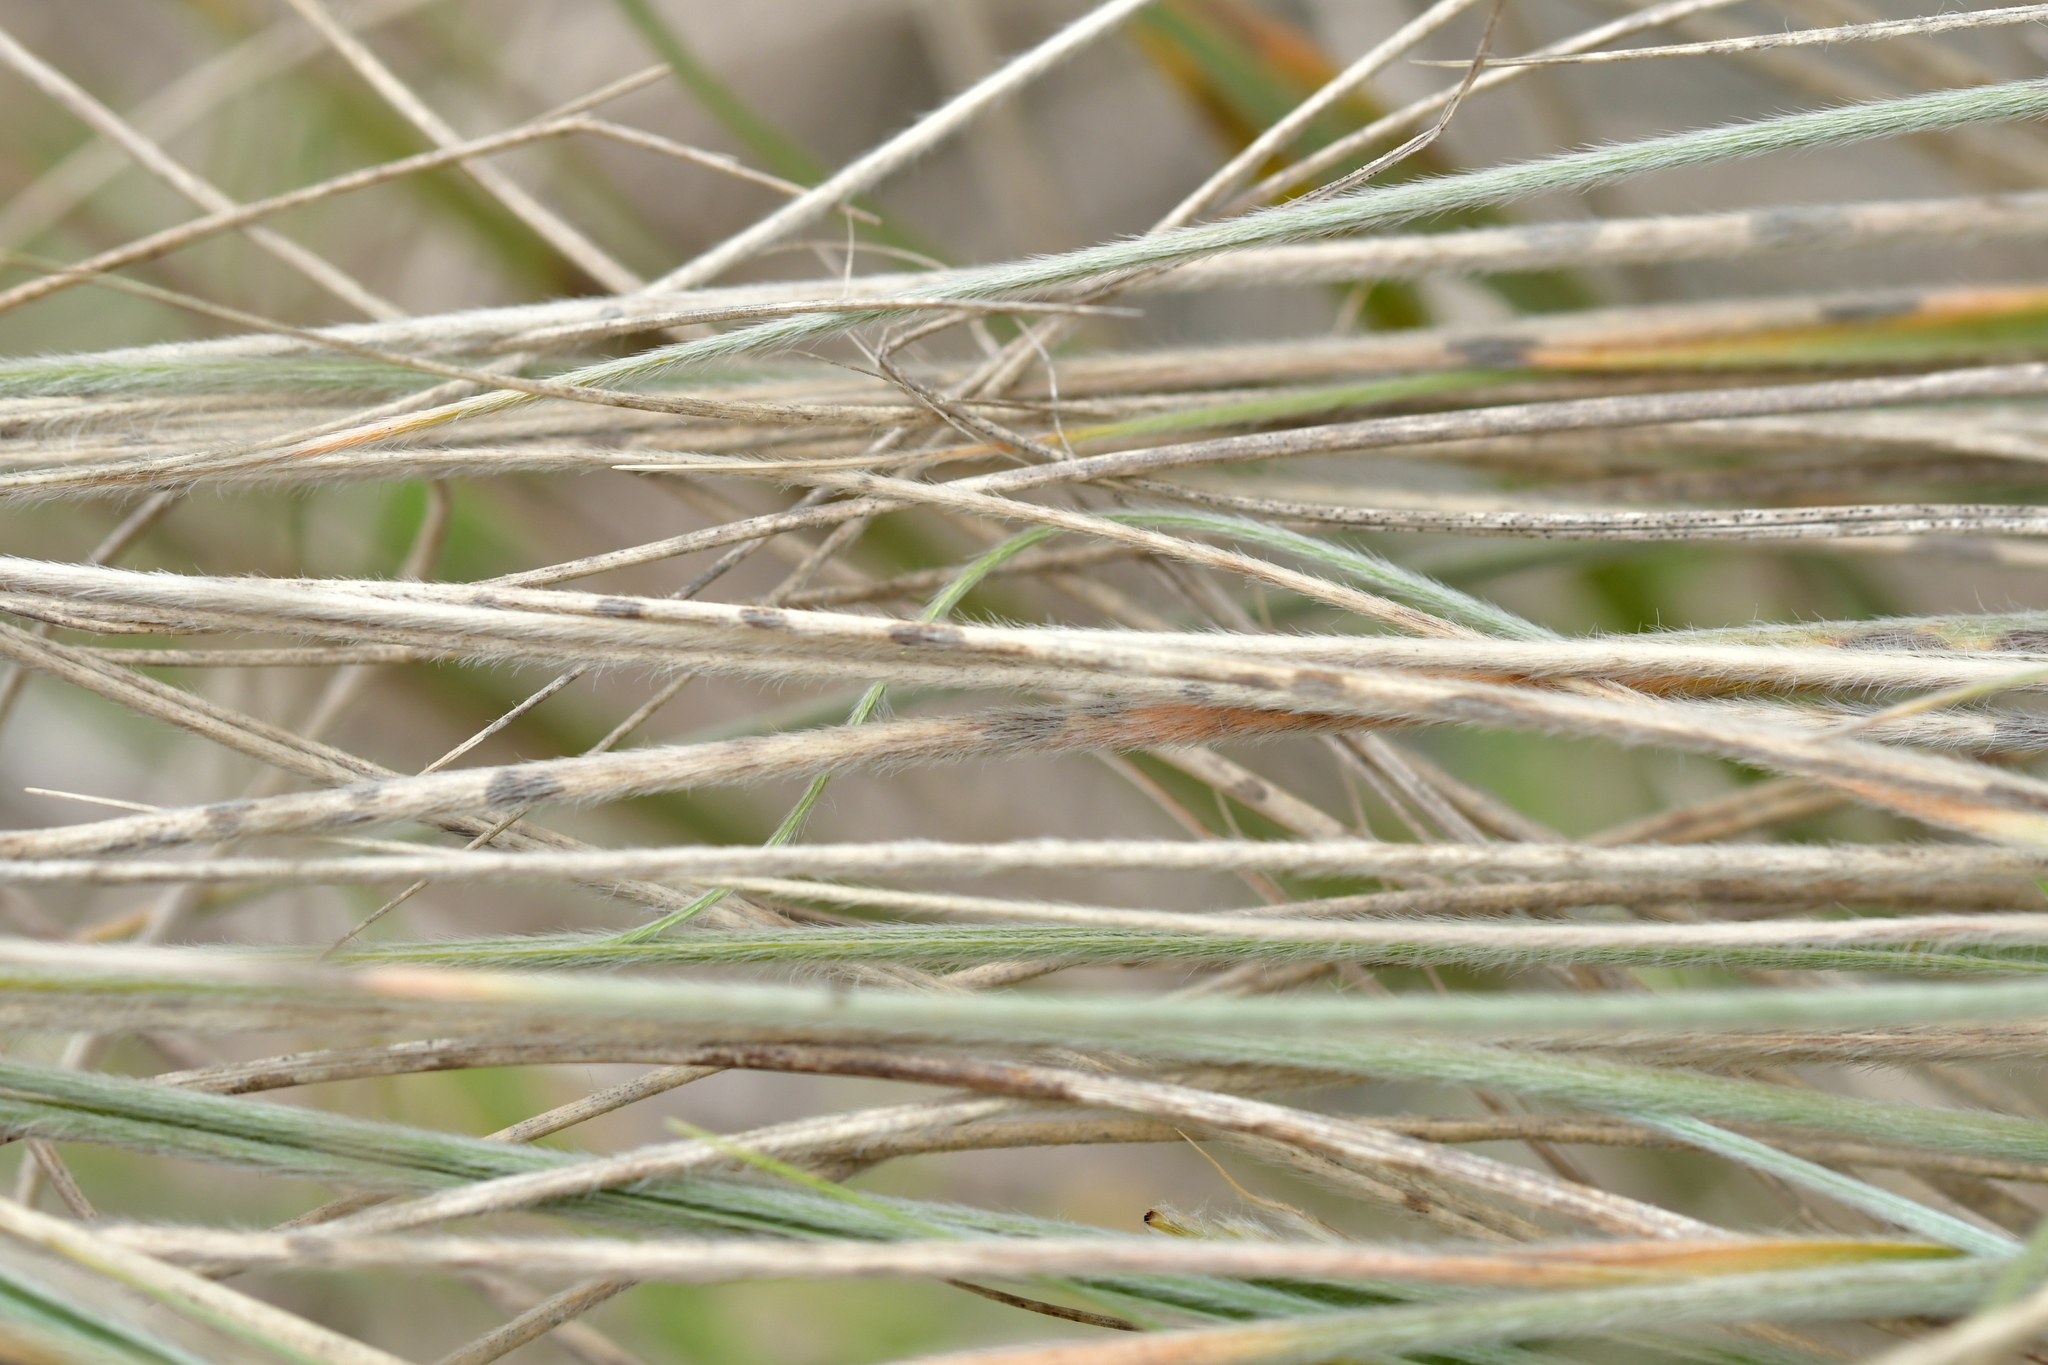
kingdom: Plantae
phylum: Tracheophyta
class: Liliopsida
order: Poales
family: Poaceae
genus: Spinifex
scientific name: Spinifex sericeus
